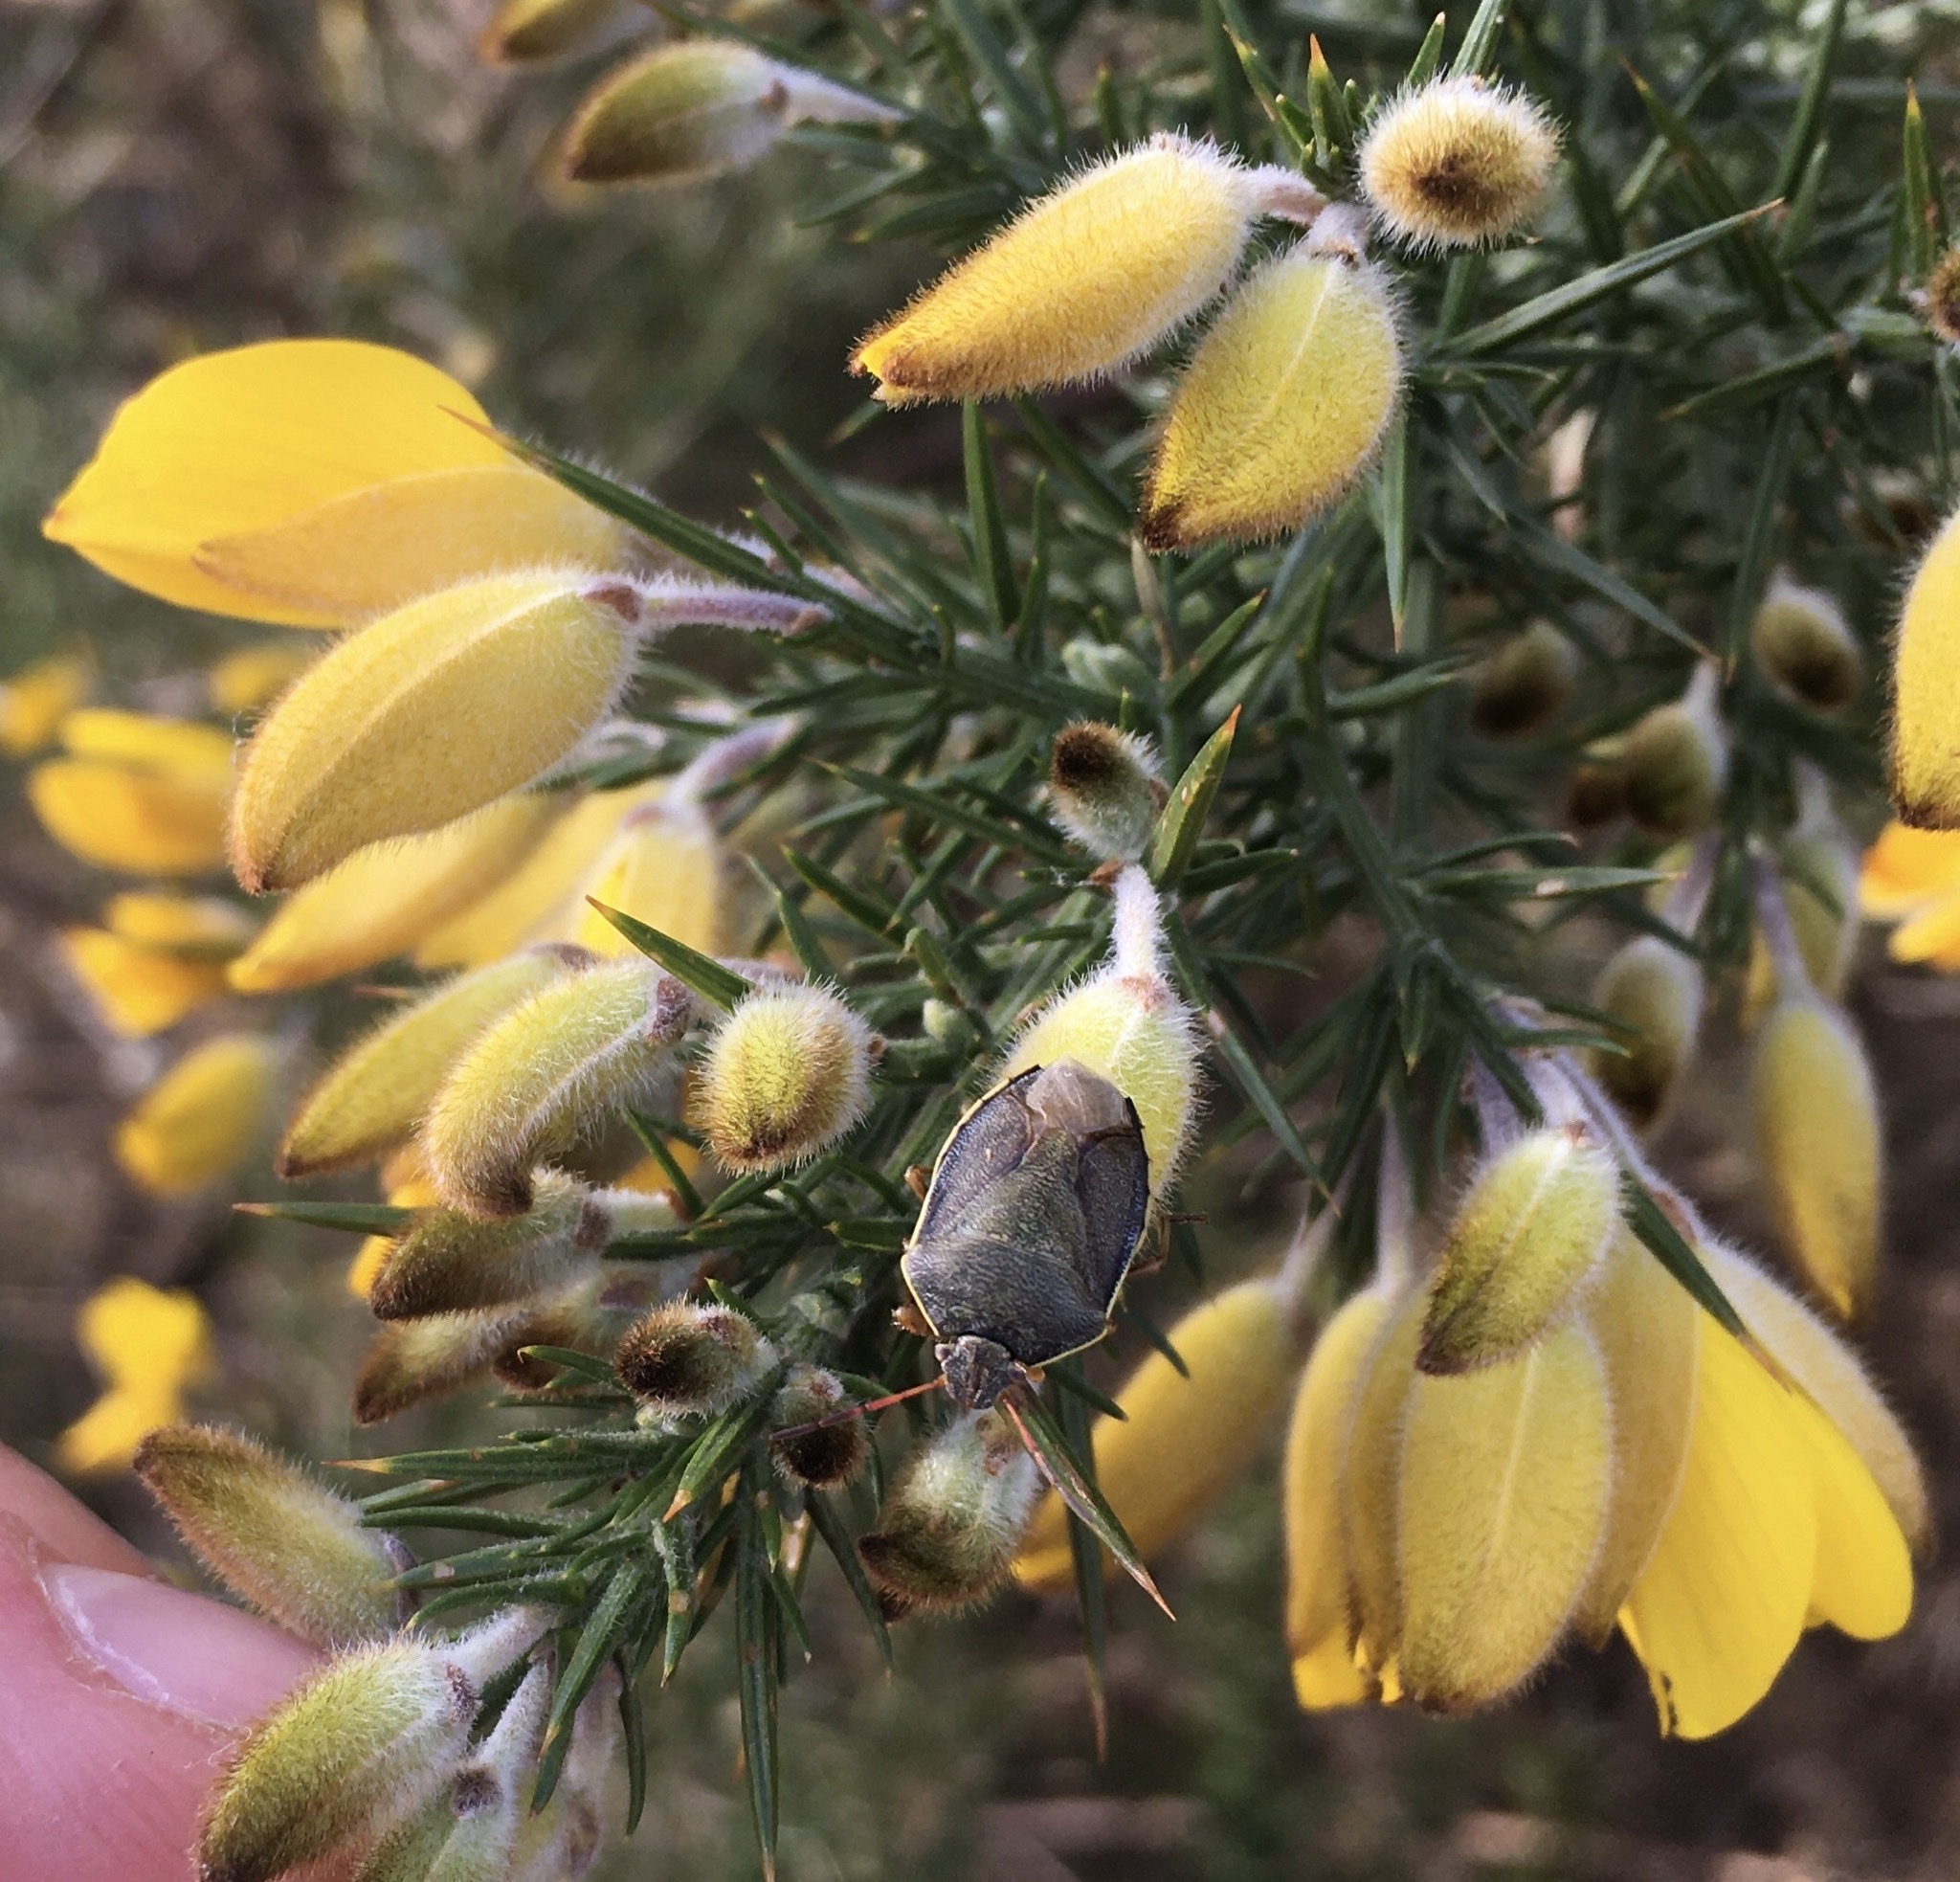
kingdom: Animalia
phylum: Arthropoda
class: Insecta
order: Hemiptera
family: Pentatomidae
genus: Piezodorus
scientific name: Piezodorus lituratus
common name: Stink bug
